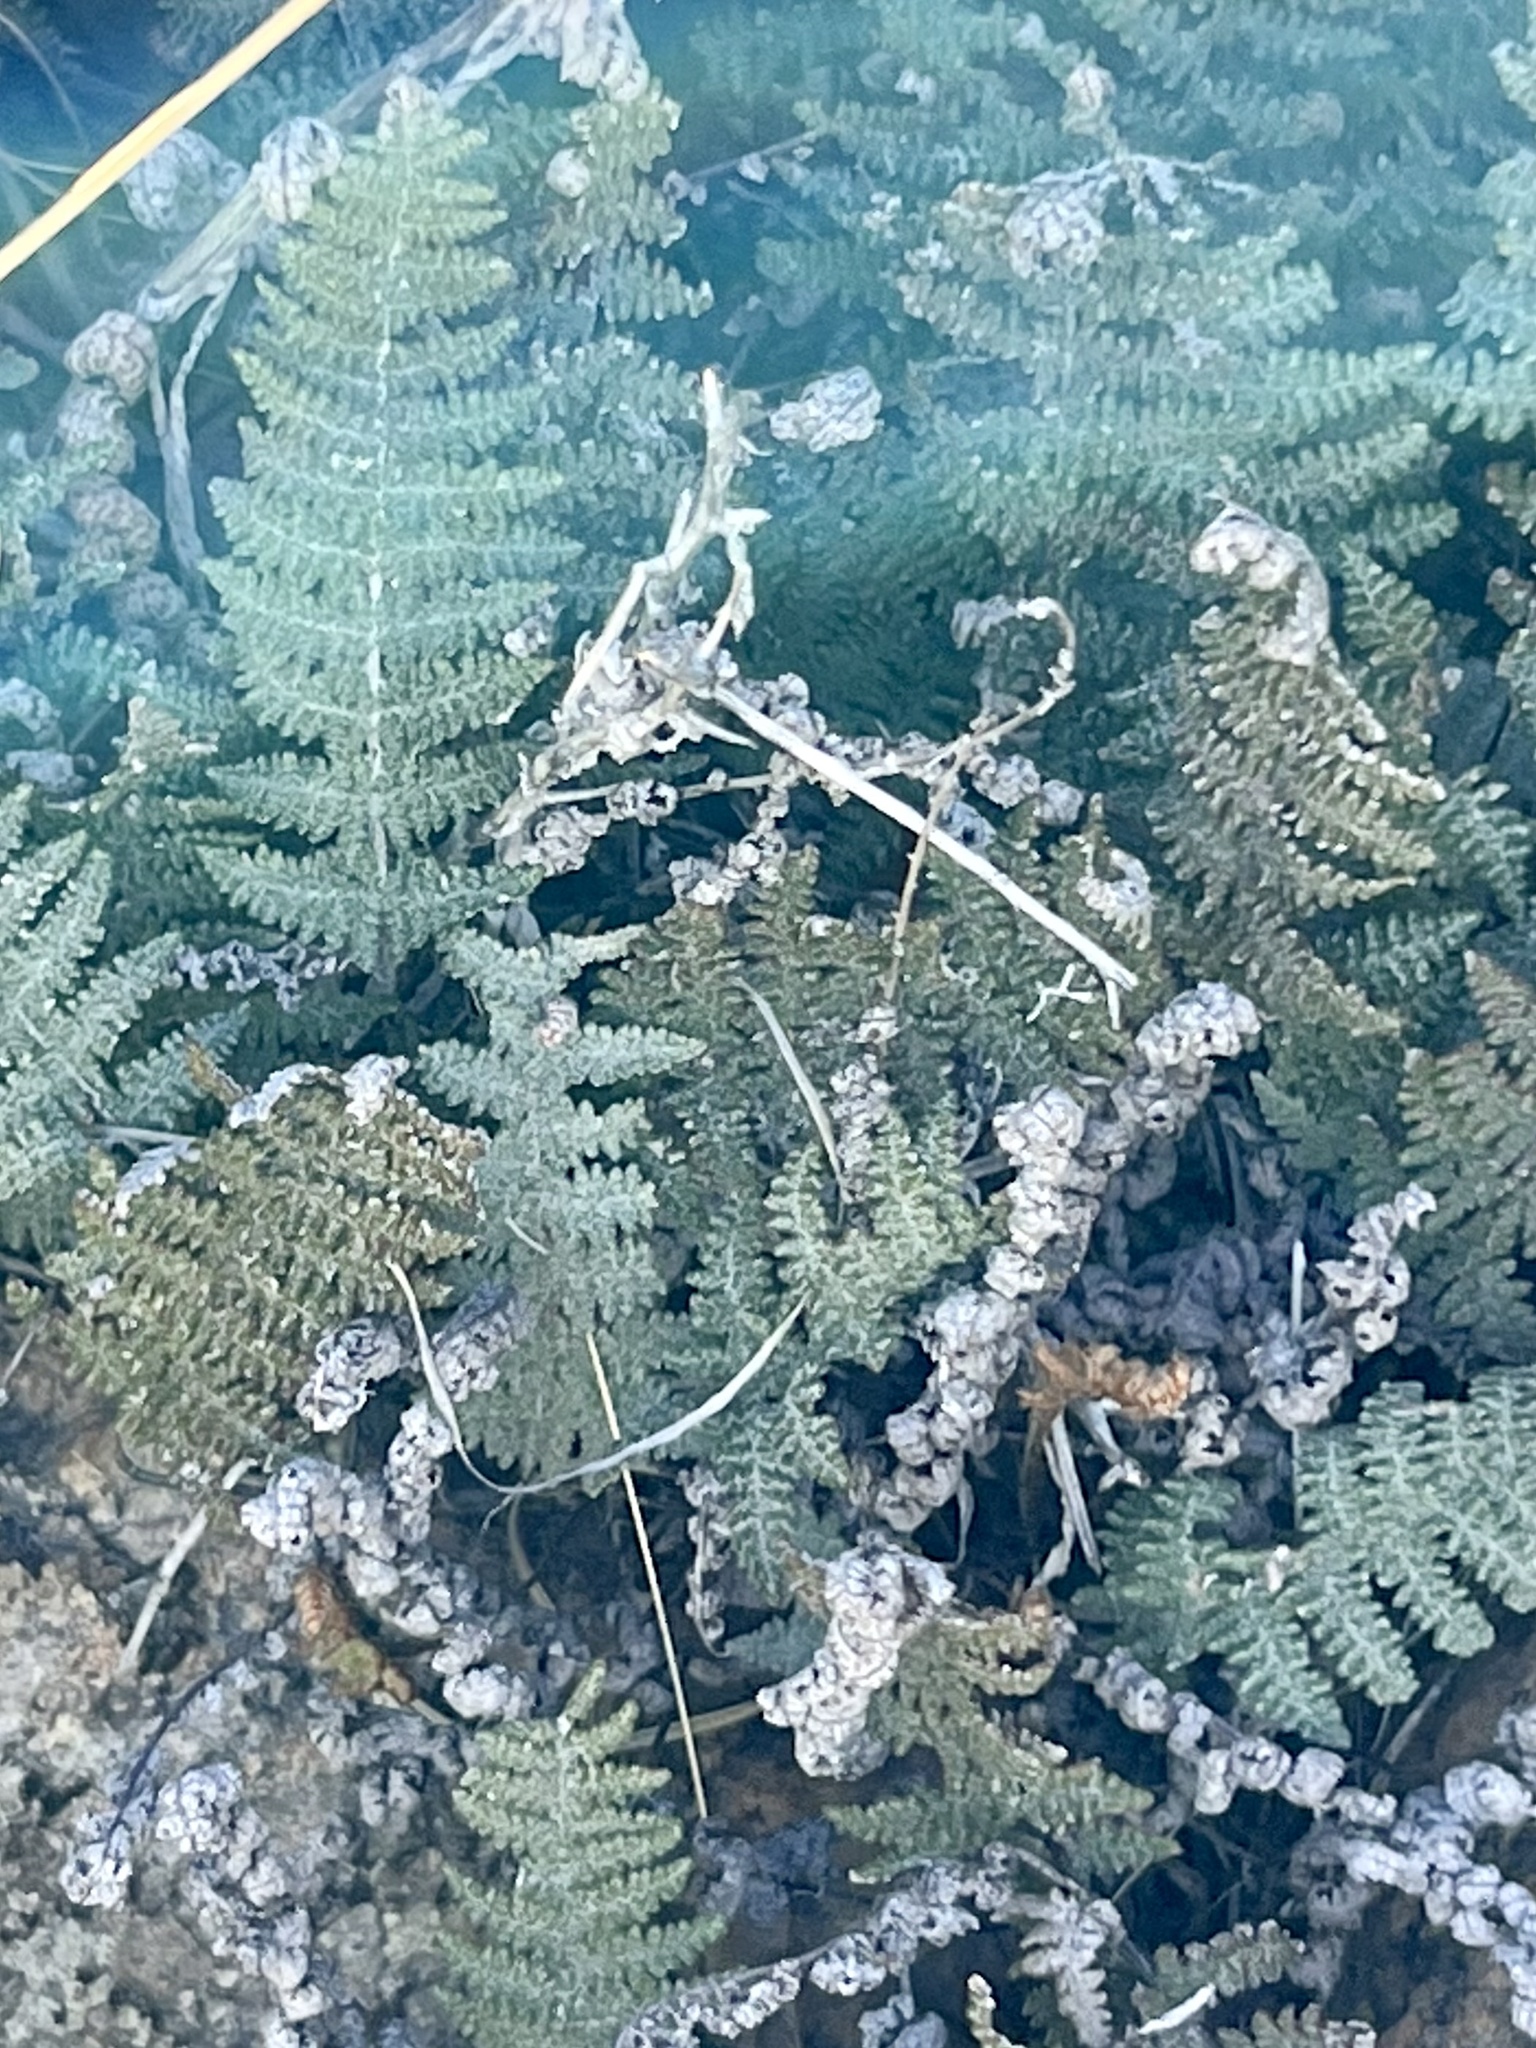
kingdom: Plantae
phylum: Tracheophyta
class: Polypodiopsida
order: Polypodiales
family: Pteridaceae
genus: Myriopteris
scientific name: Myriopteris lindheimeri
